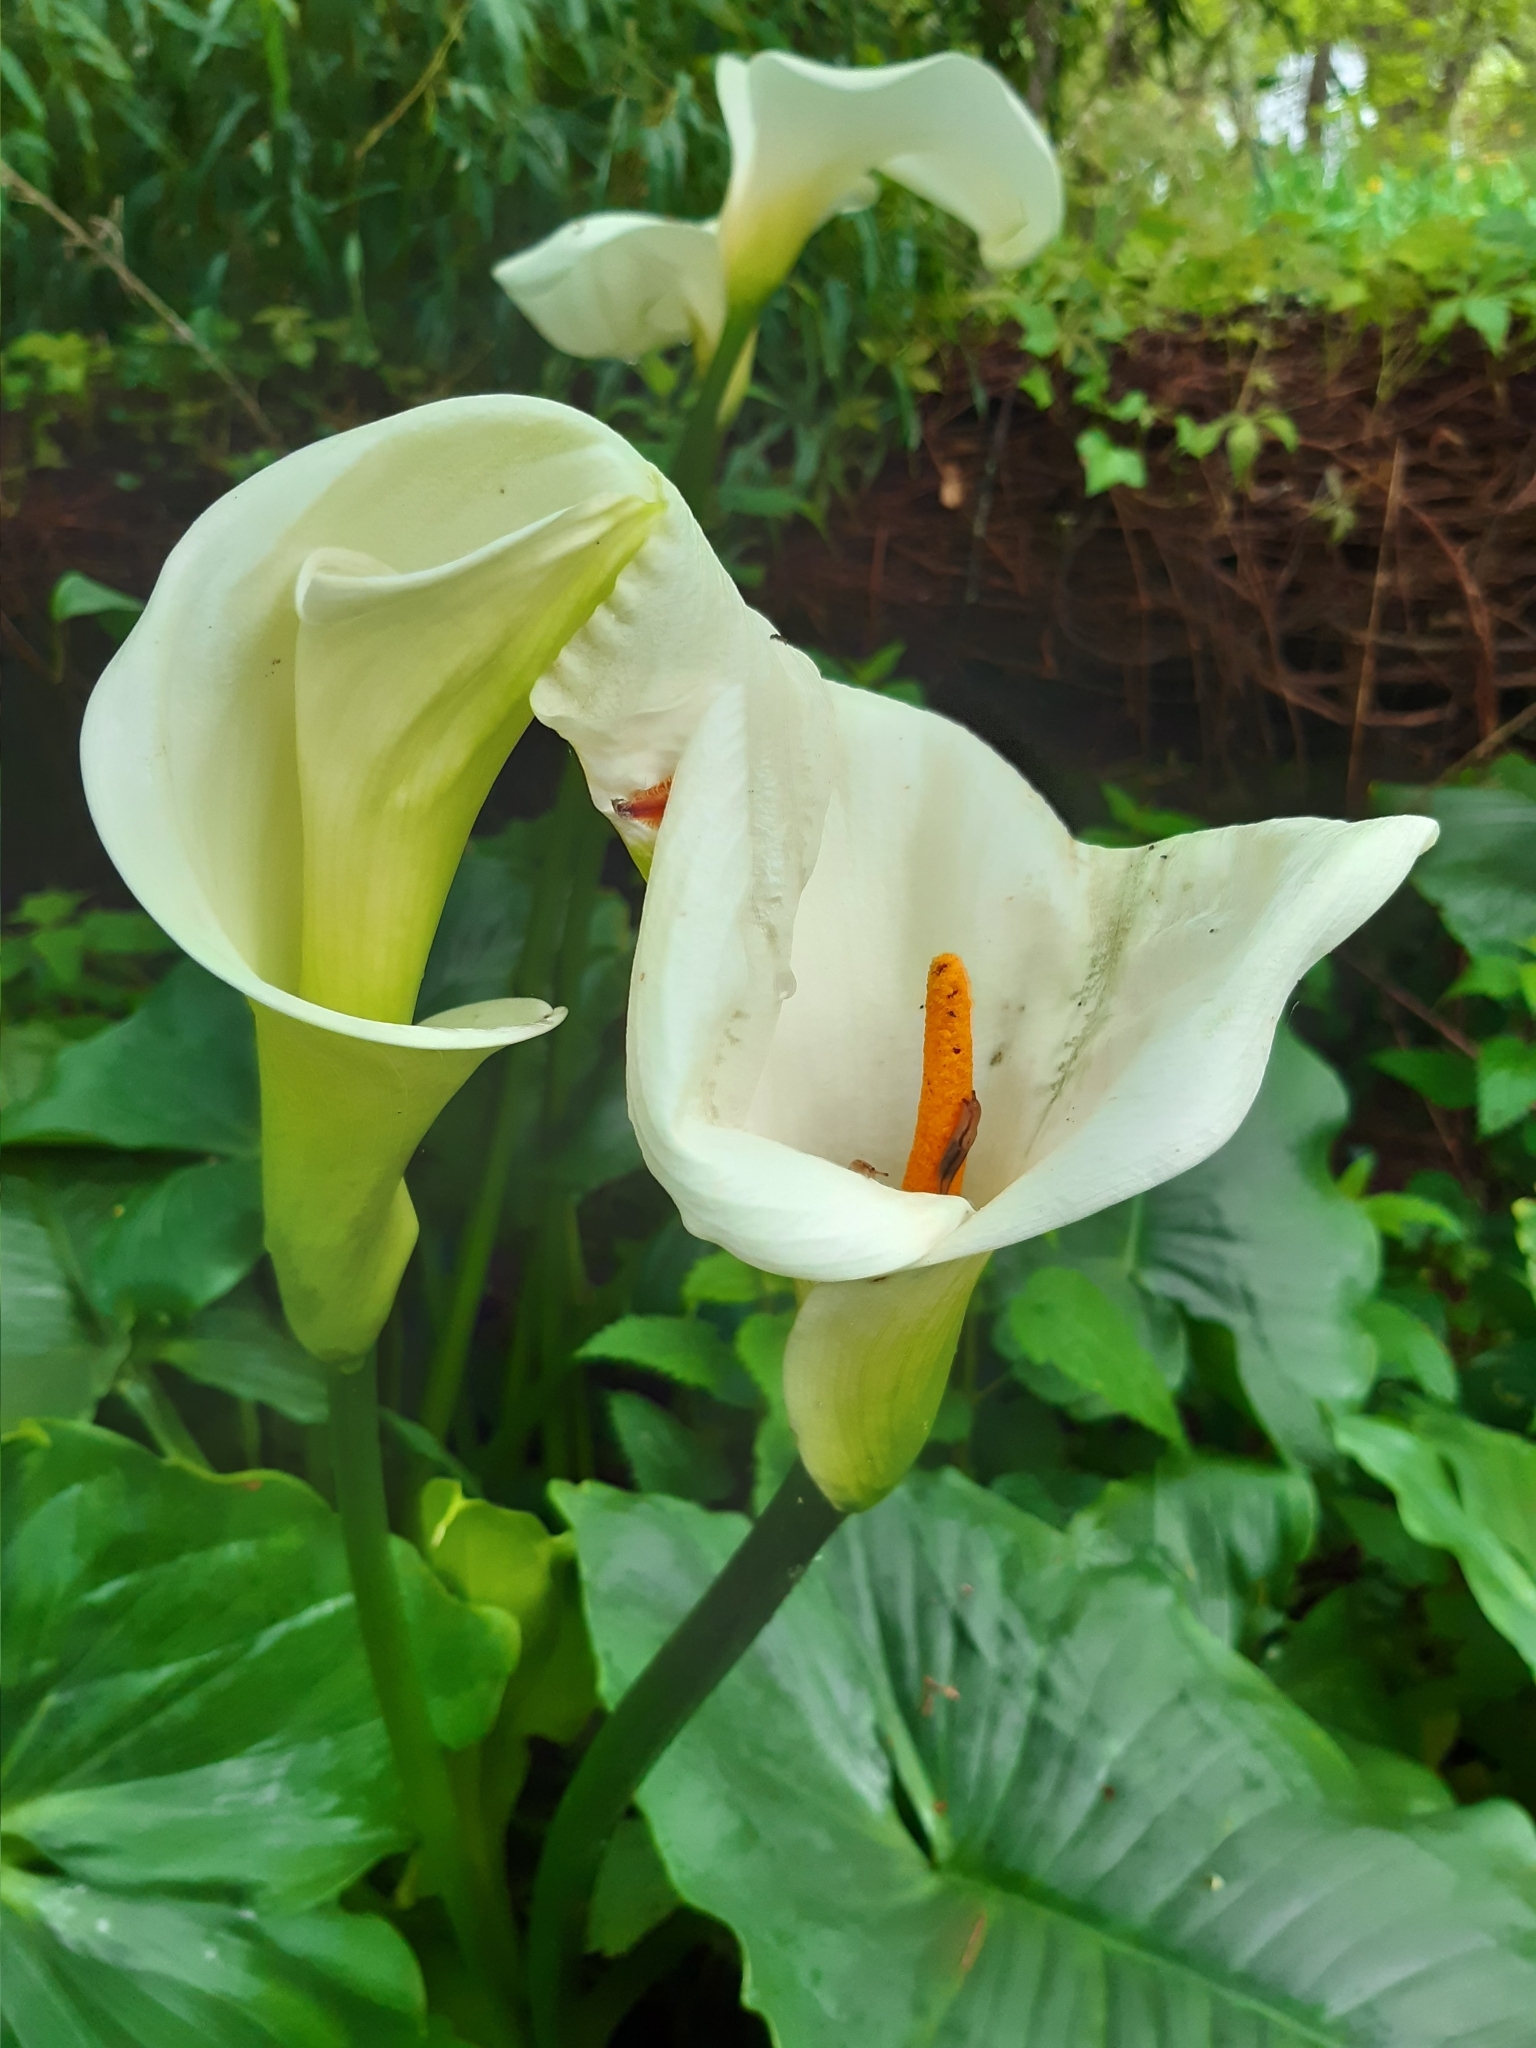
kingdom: Plantae
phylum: Tracheophyta
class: Liliopsida
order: Alismatales
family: Araceae
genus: Zantedeschia
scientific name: Zantedeschia aethiopica
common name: Altar-lily
